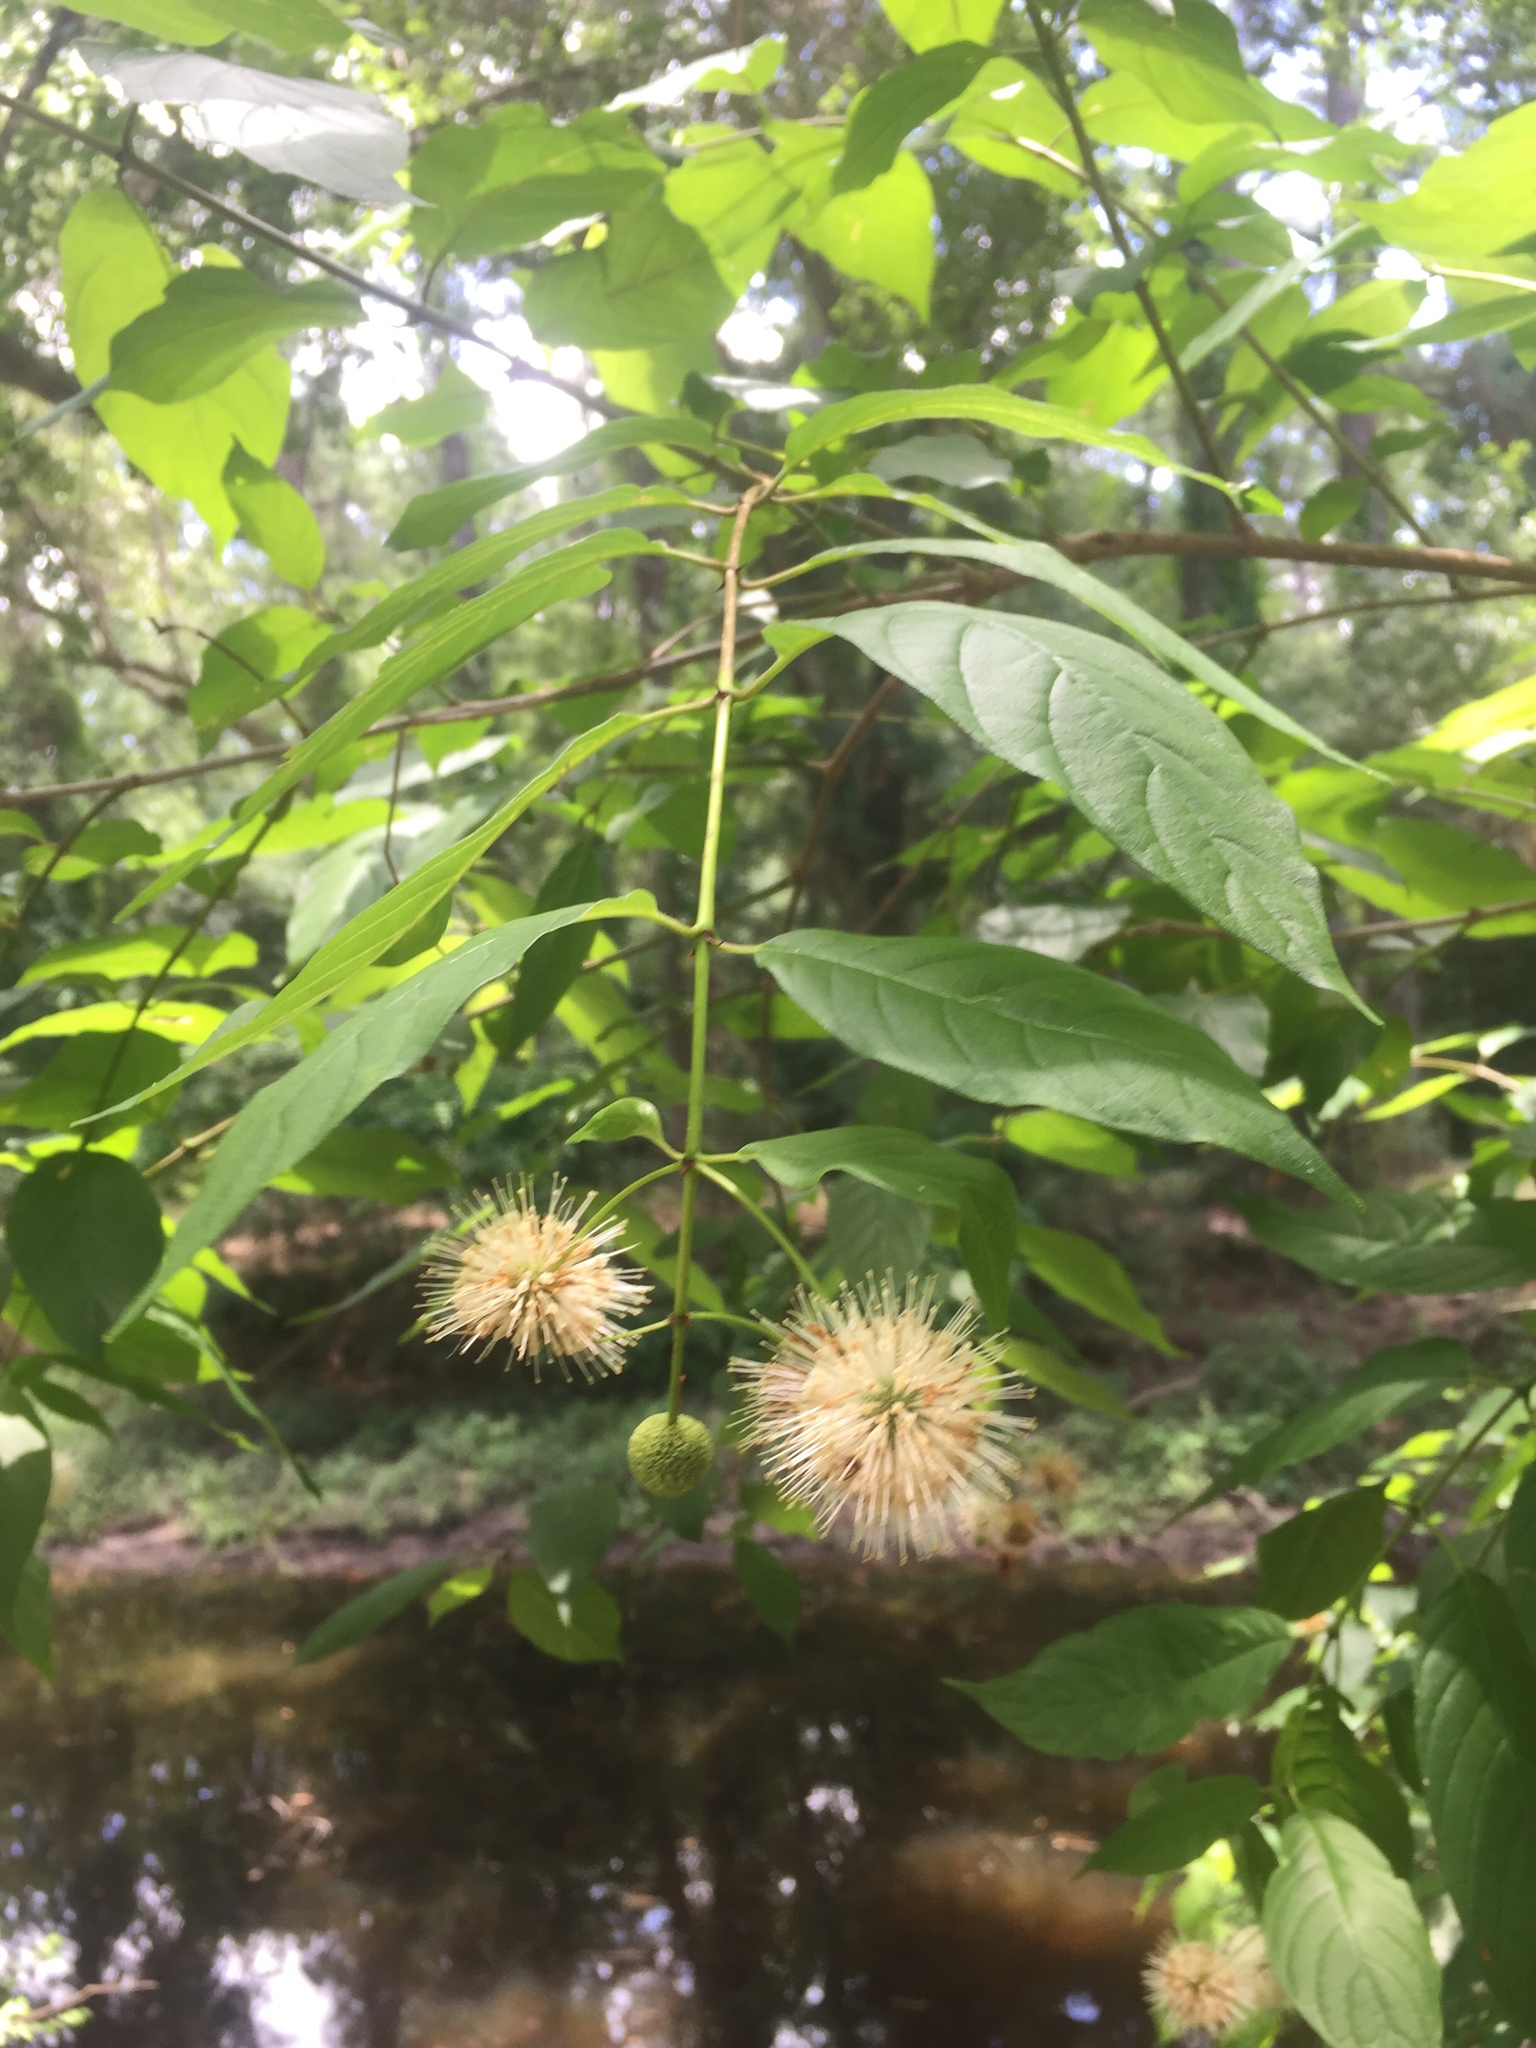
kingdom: Plantae
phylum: Tracheophyta
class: Magnoliopsida
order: Gentianales
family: Rubiaceae
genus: Cephalanthus
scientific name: Cephalanthus occidentalis
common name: Button-willow
